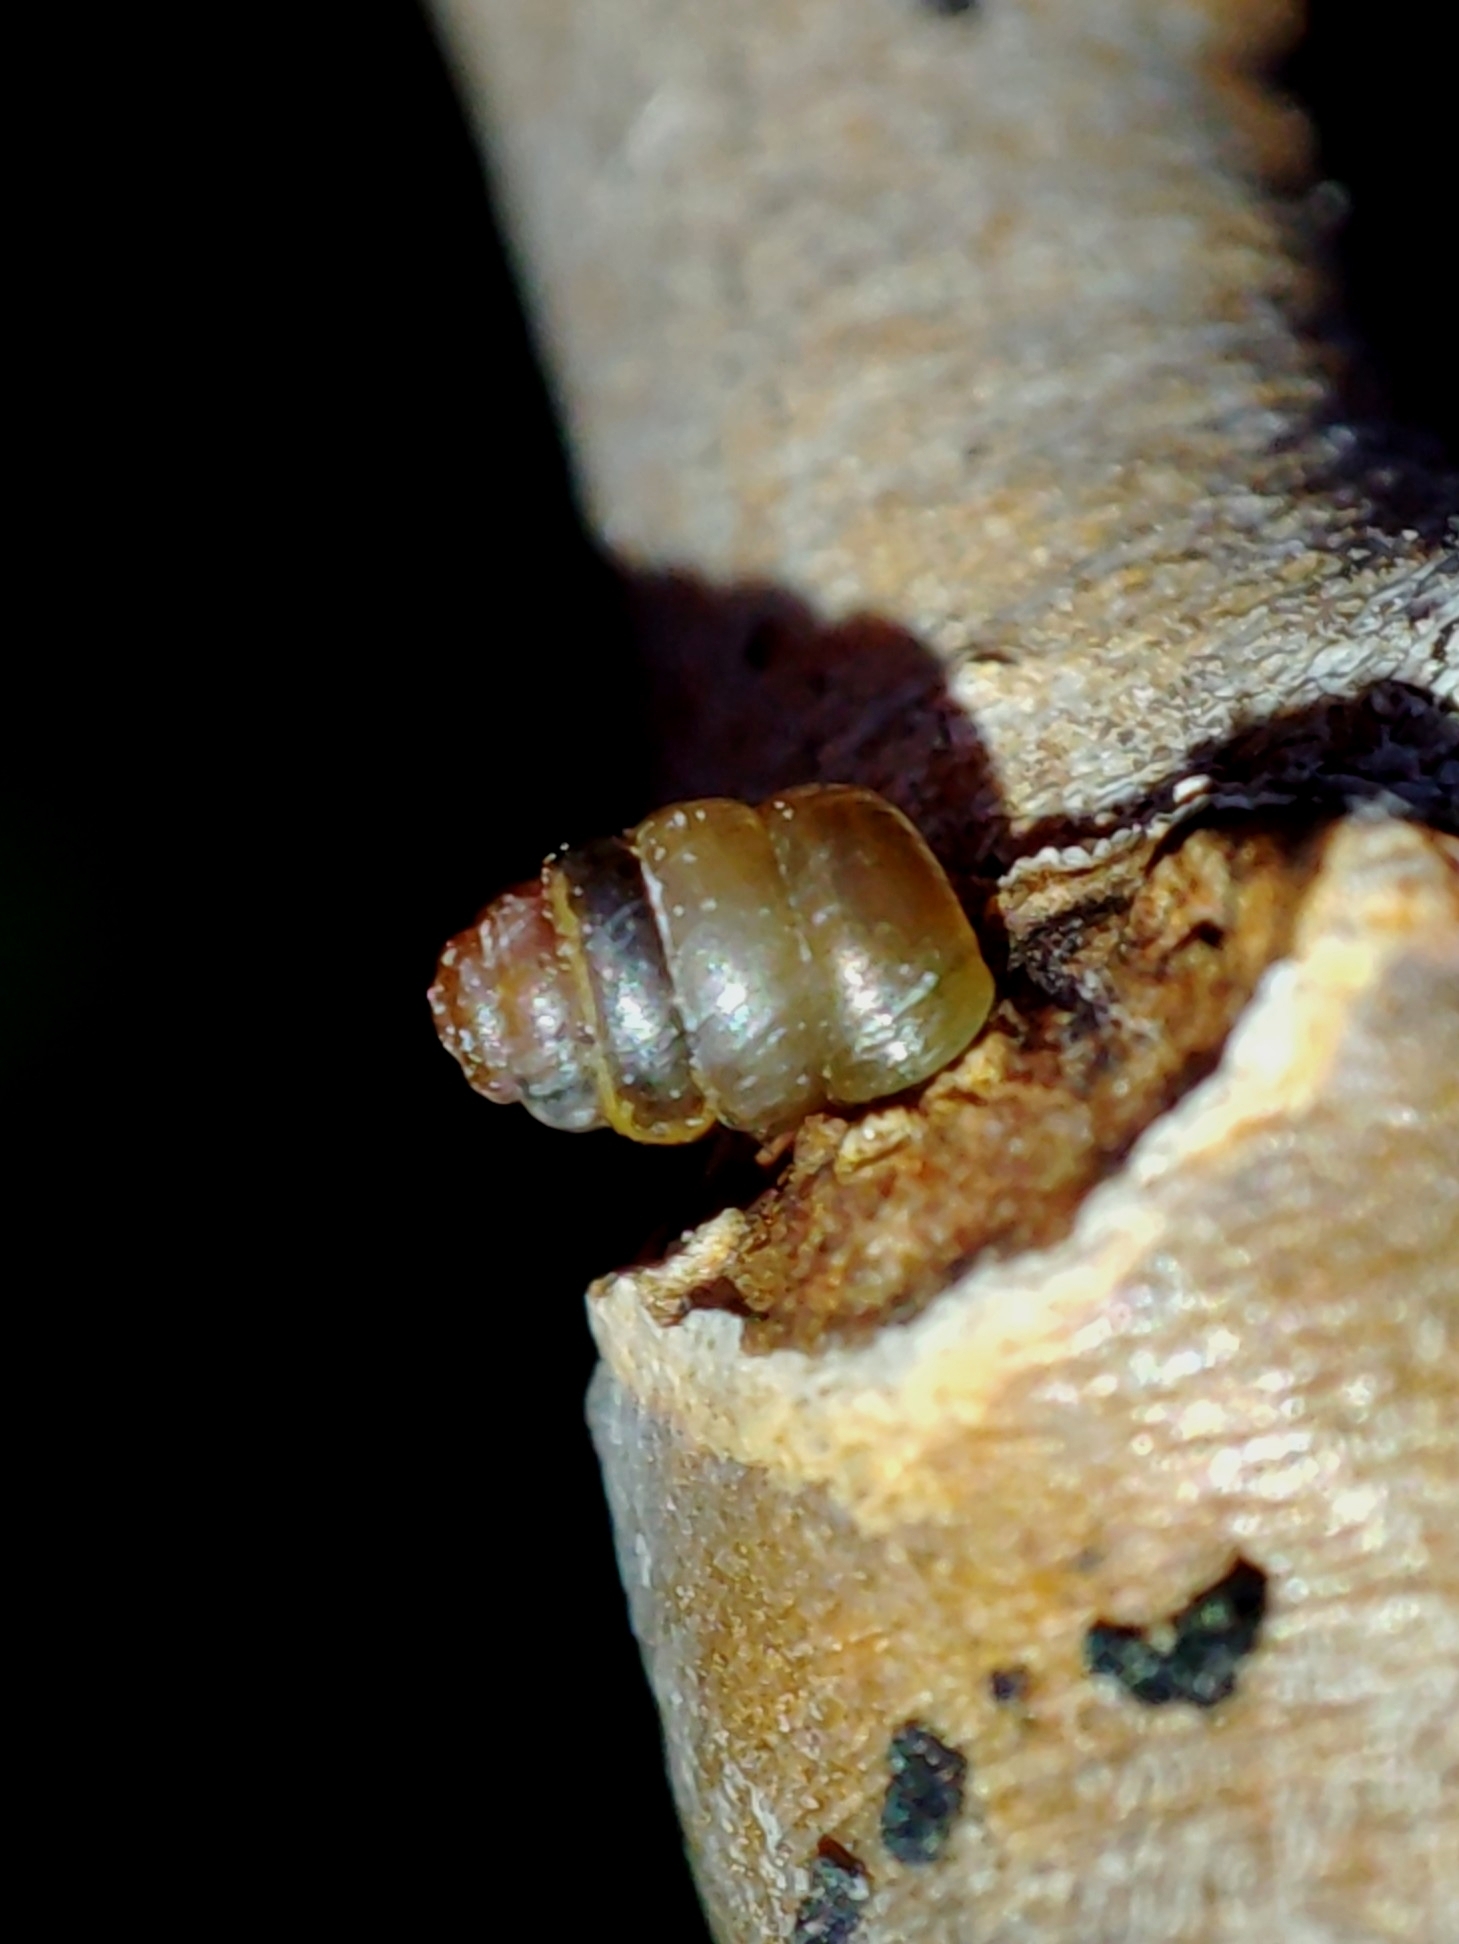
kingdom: Animalia
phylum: Mollusca
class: Gastropoda
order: Stylommatophora
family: Truncatellinidae
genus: Columella
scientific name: Columella edentula
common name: Toothless chrysalis snail
